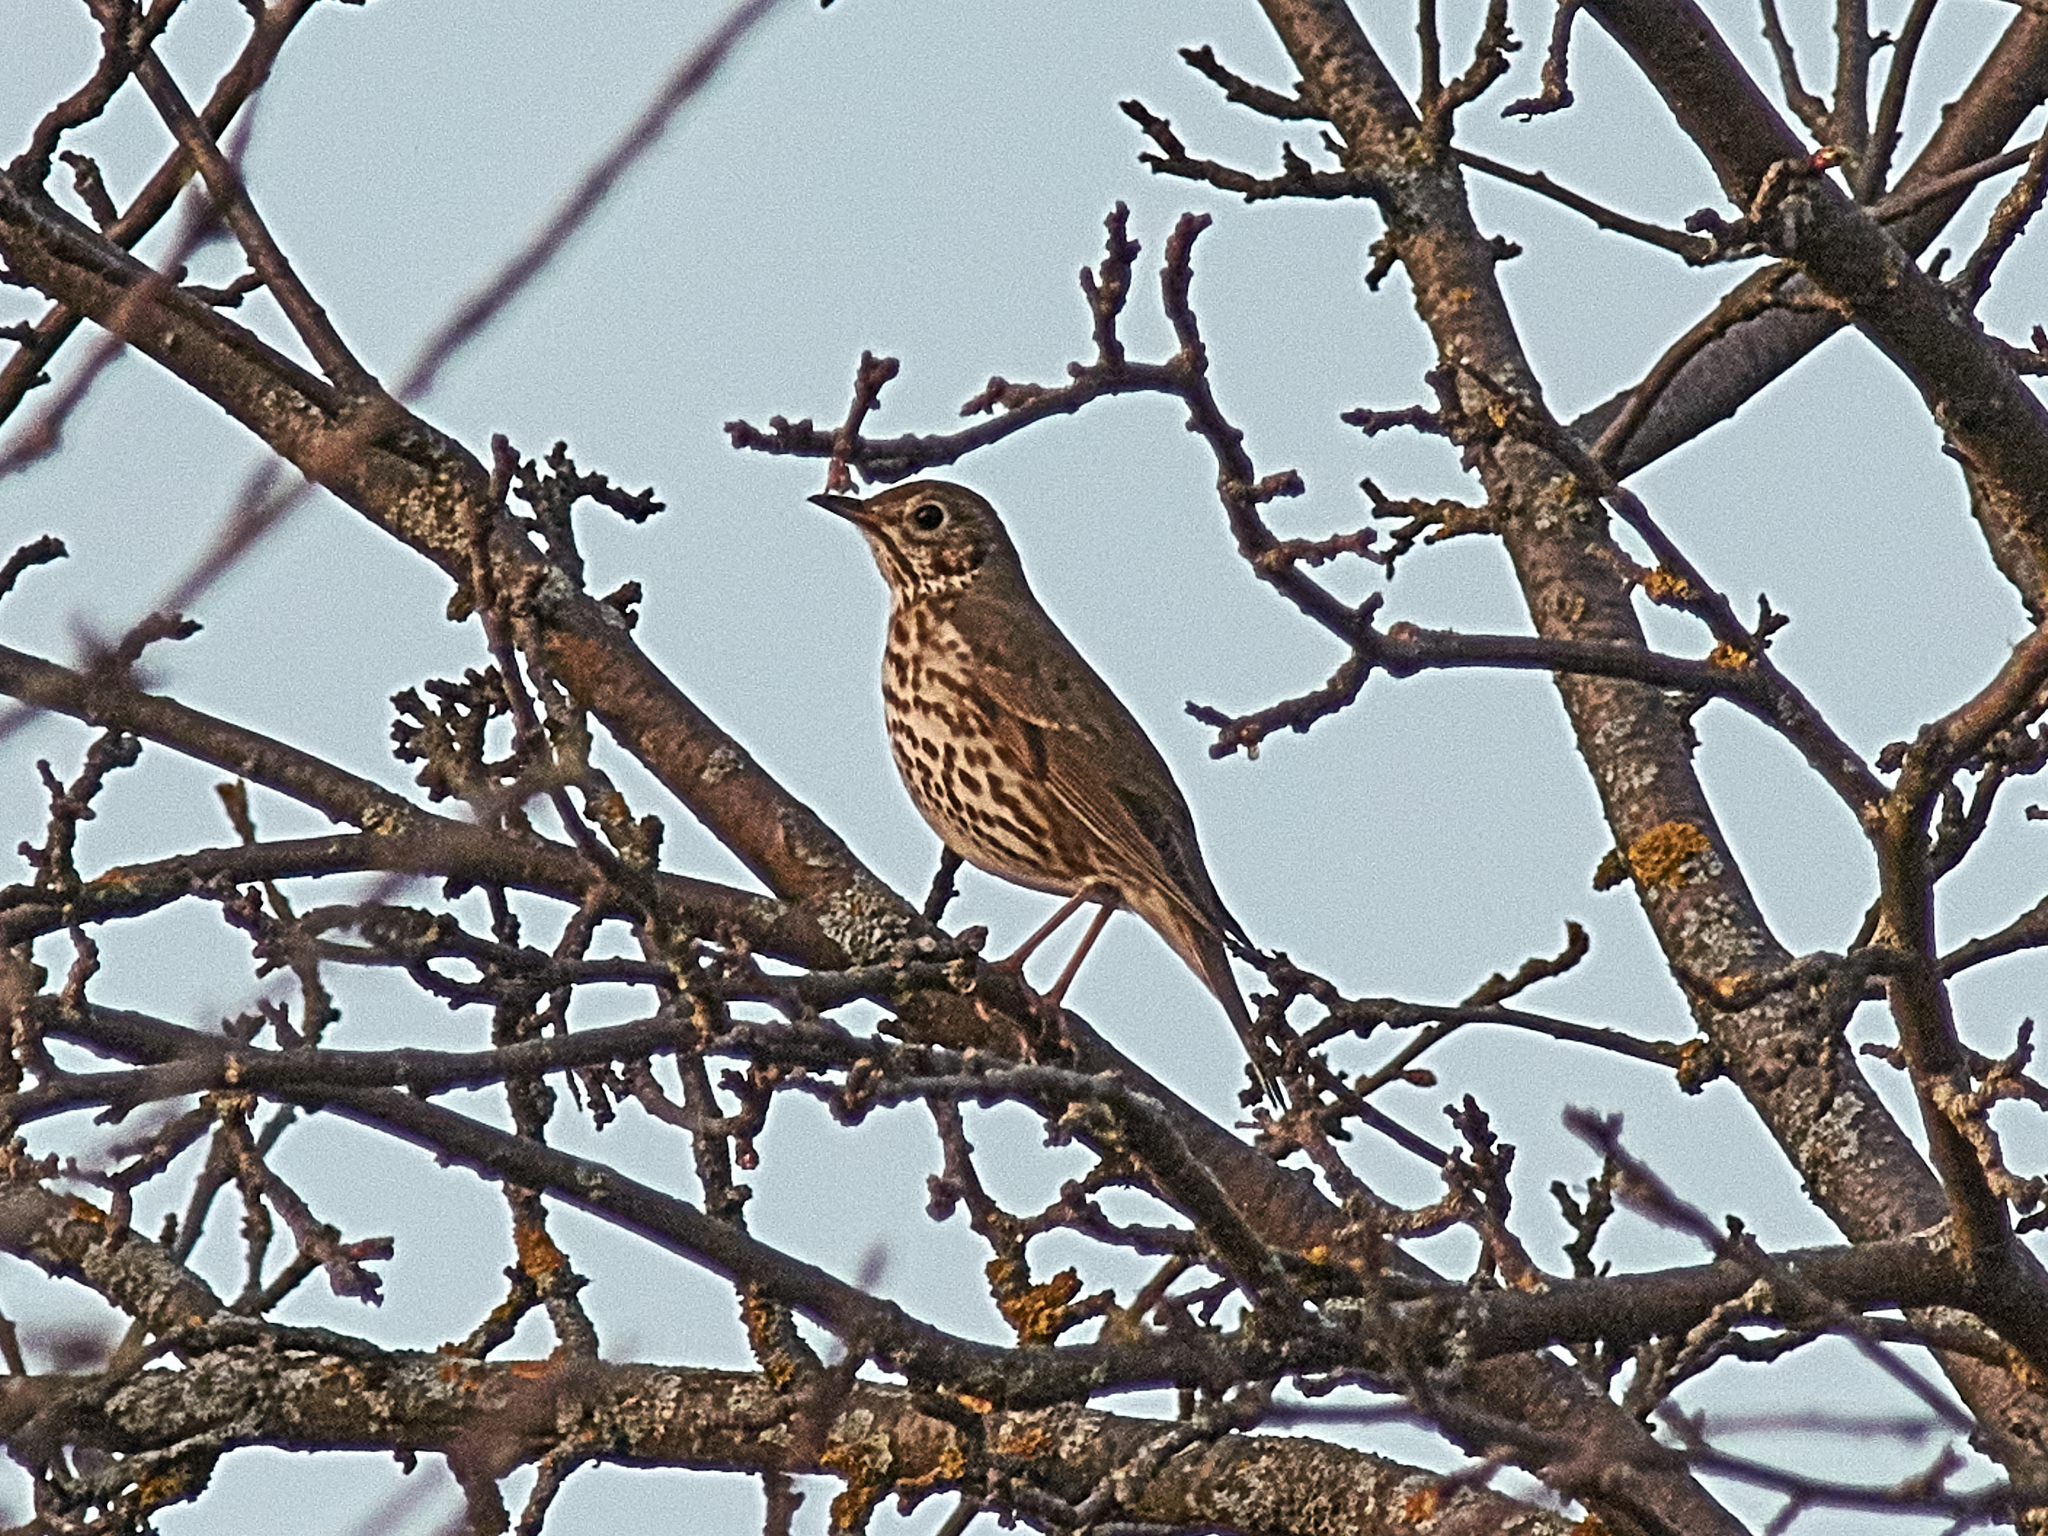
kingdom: Animalia
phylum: Chordata
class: Aves
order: Passeriformes
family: Turdidae
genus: Turdus
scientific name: Turdus philomelos
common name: Song thrush
